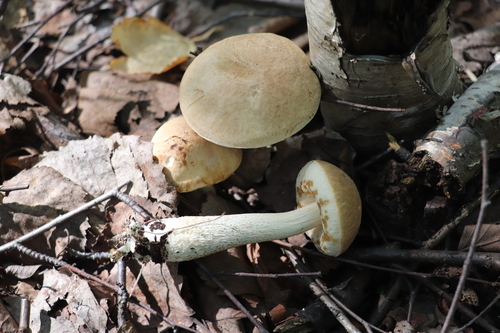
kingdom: Fungi
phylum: Basidiomycota
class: Agaricomycetes
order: Boletales
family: Boletaceae
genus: Leccinum
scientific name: Leccinum scabrum
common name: Blushing bolete
